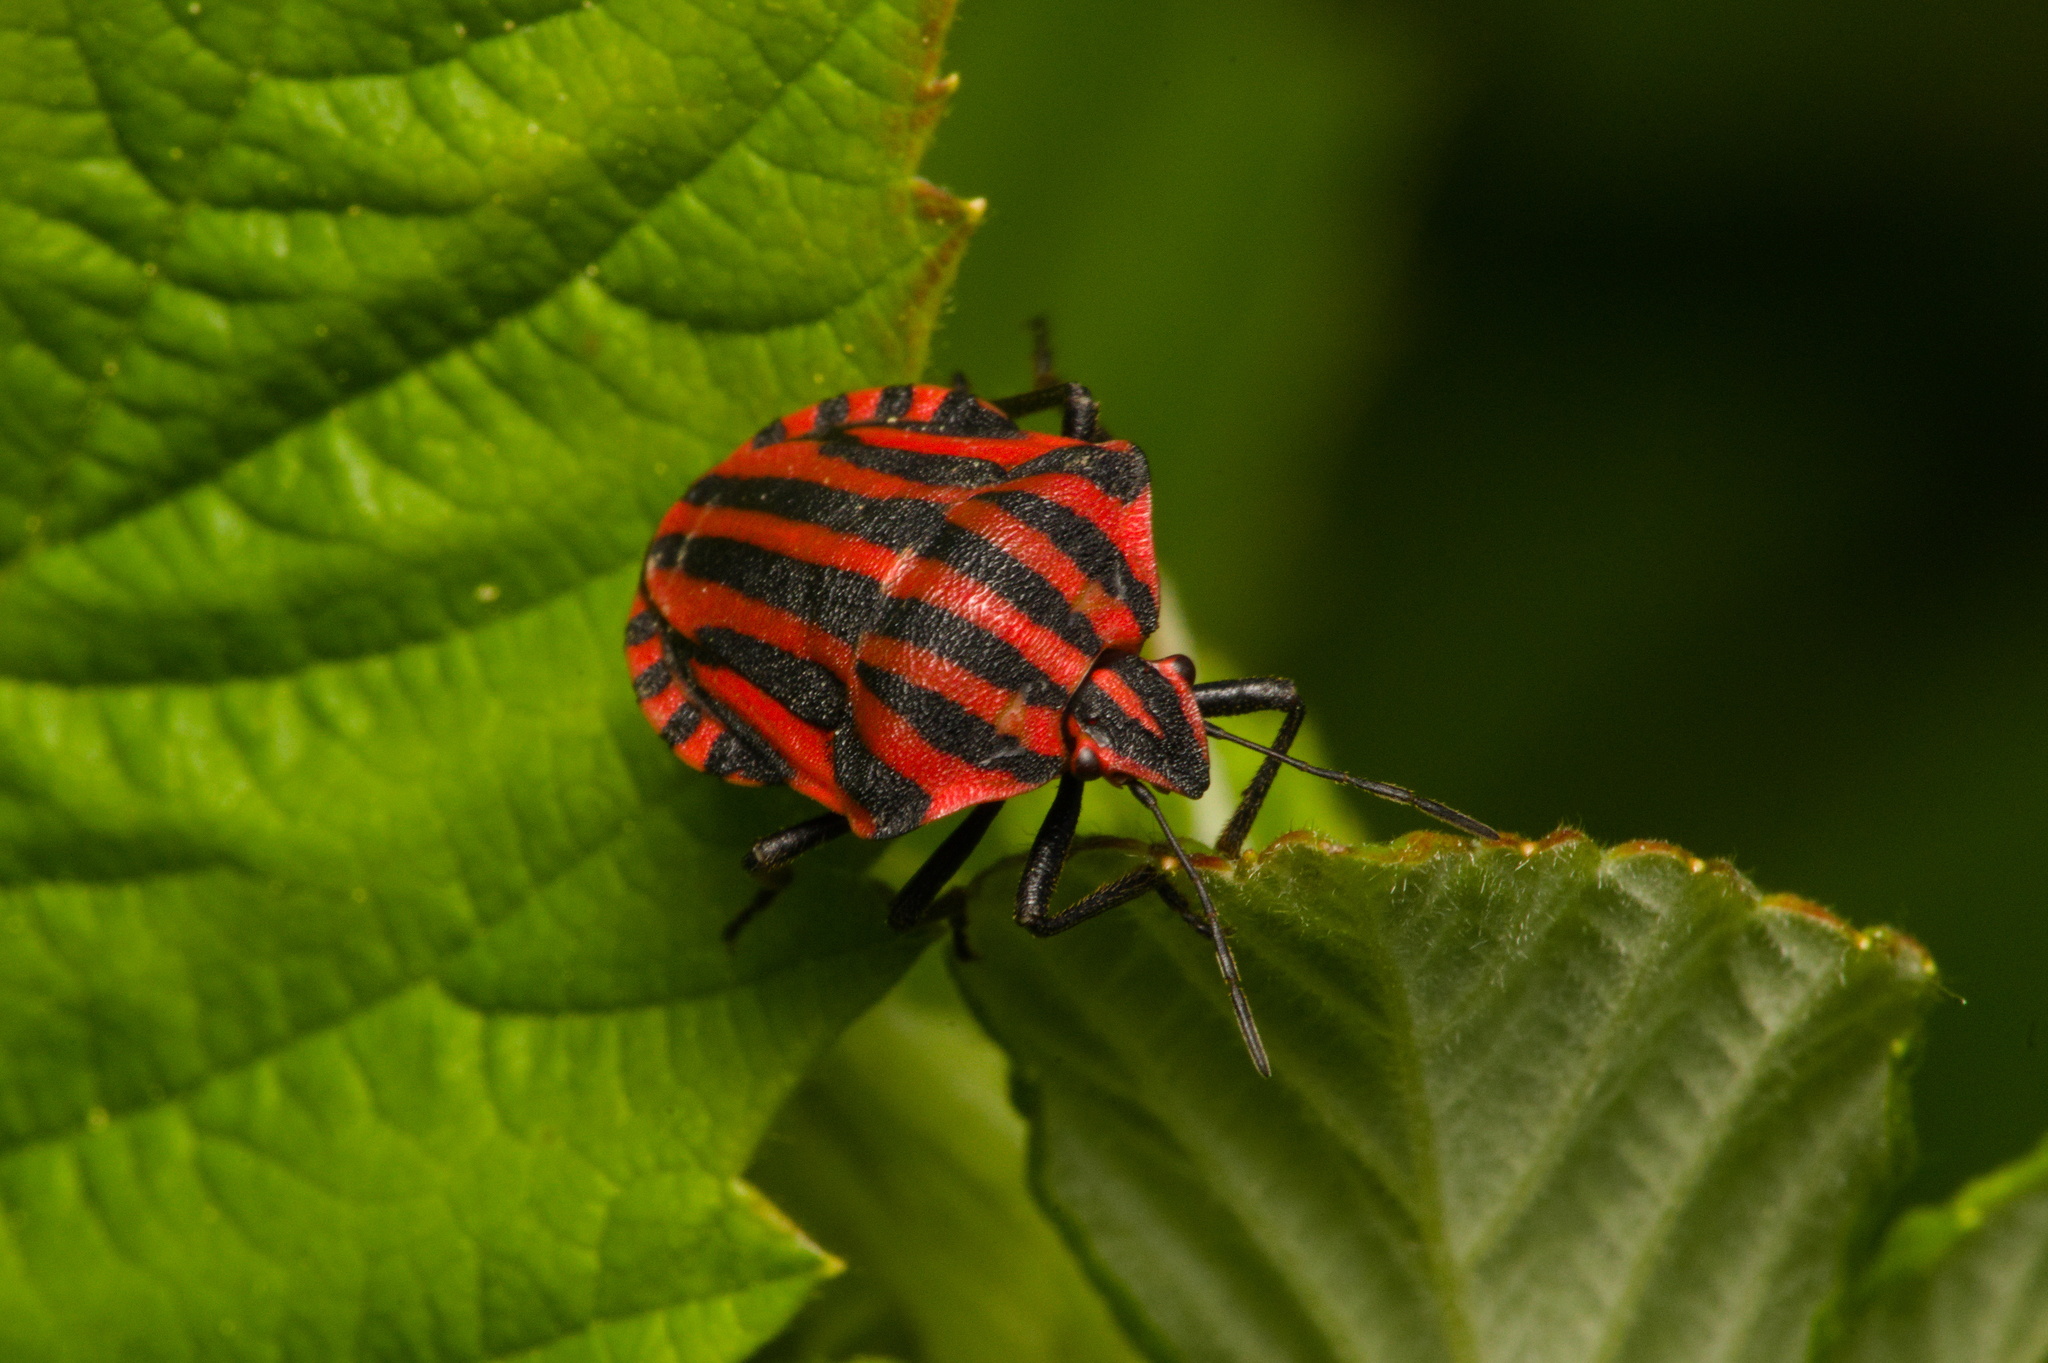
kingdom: Animalia
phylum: Arthropoda
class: Insecta
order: Hemiptera
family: Pentatomidae
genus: Graphosoma
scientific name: Graphosoma italicum
